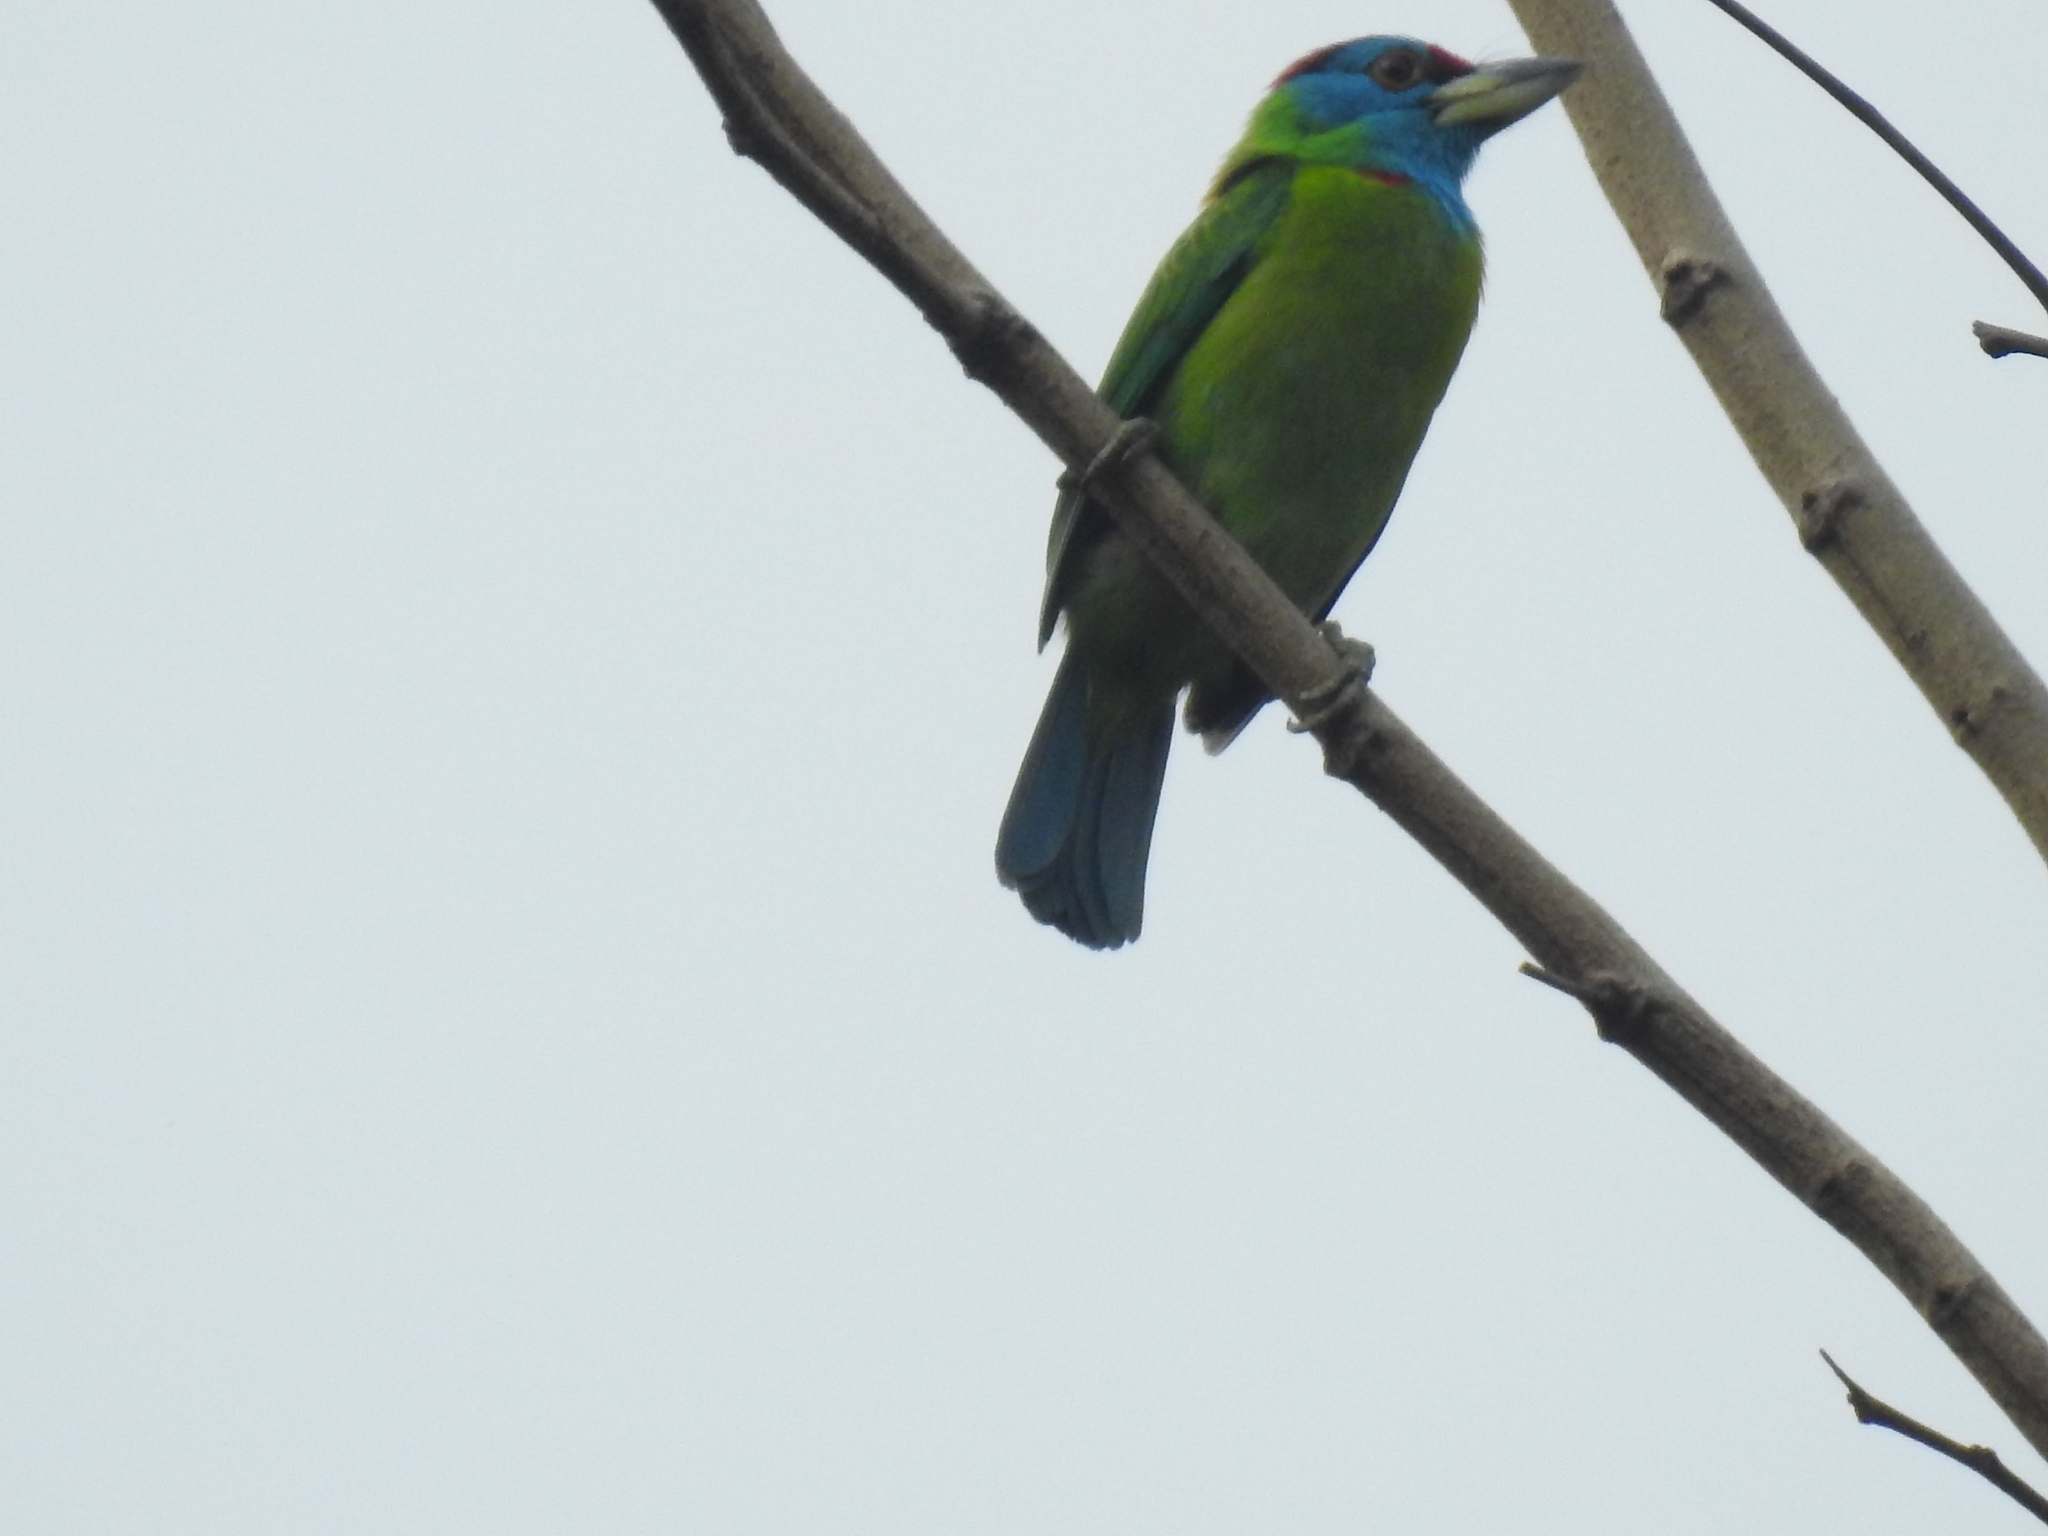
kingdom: Animalia
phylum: Chordata
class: Aves
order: Piciformes
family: Megalaimidae
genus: Psilopogon
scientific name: Psilopogon asiaticus
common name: Blue-throated barbet
